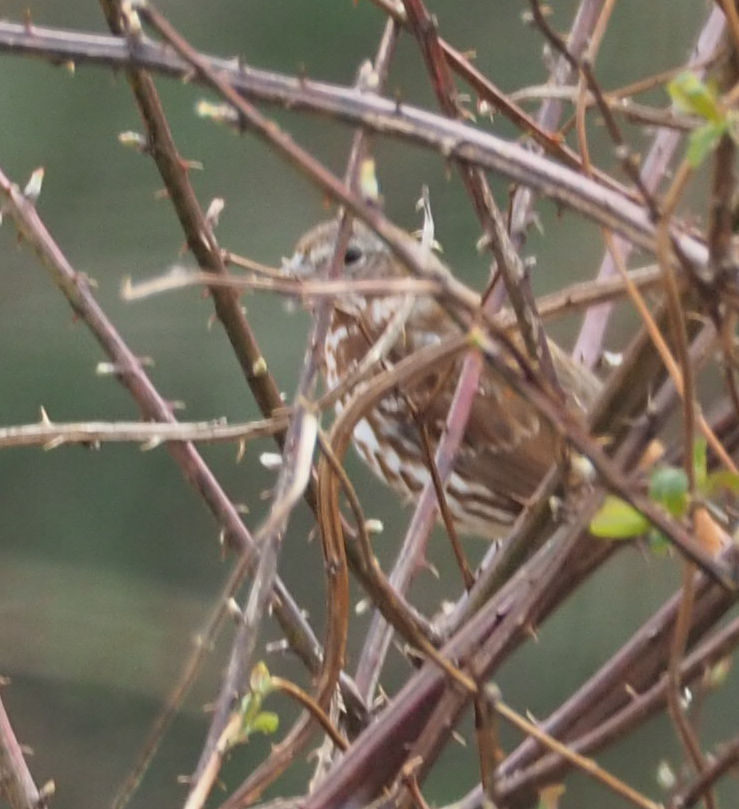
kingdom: Animalia
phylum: Chordata
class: Aves
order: Passeriformes
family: Passerellidae
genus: Melospiza
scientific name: Melospiza melodia
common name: Song sparrow
